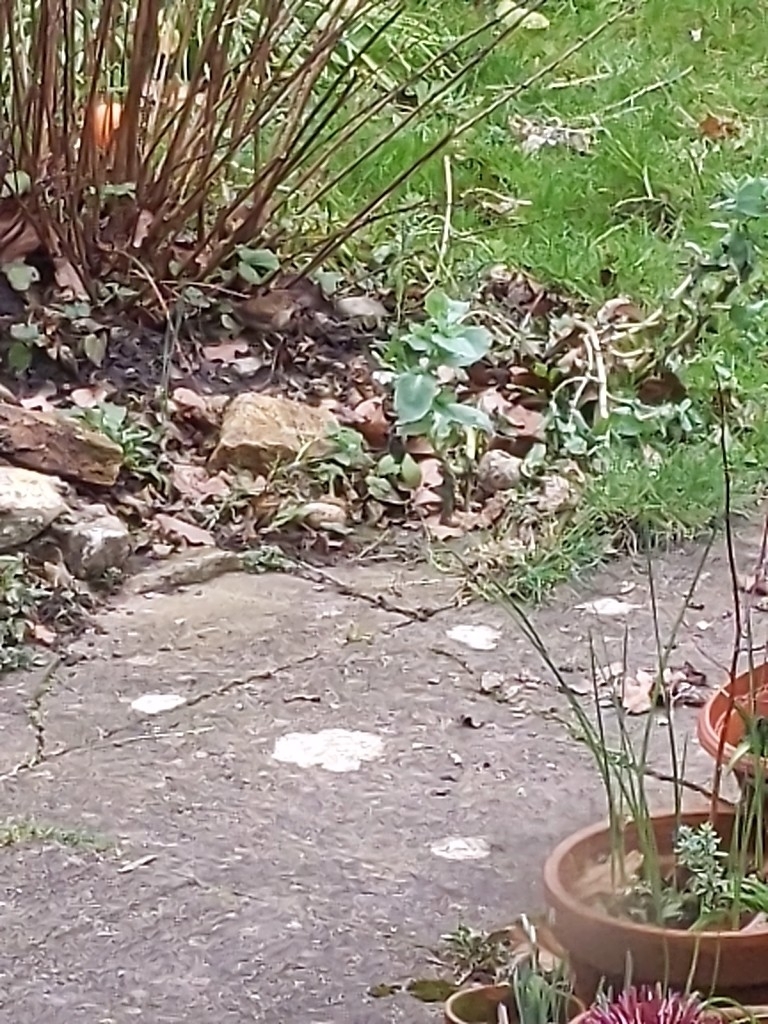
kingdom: Animalia
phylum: Chordata
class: Aves
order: Passeriformes
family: Troglodytidae
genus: Troglodytes
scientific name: Troglodytes troglodytes
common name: Eurasian wren
